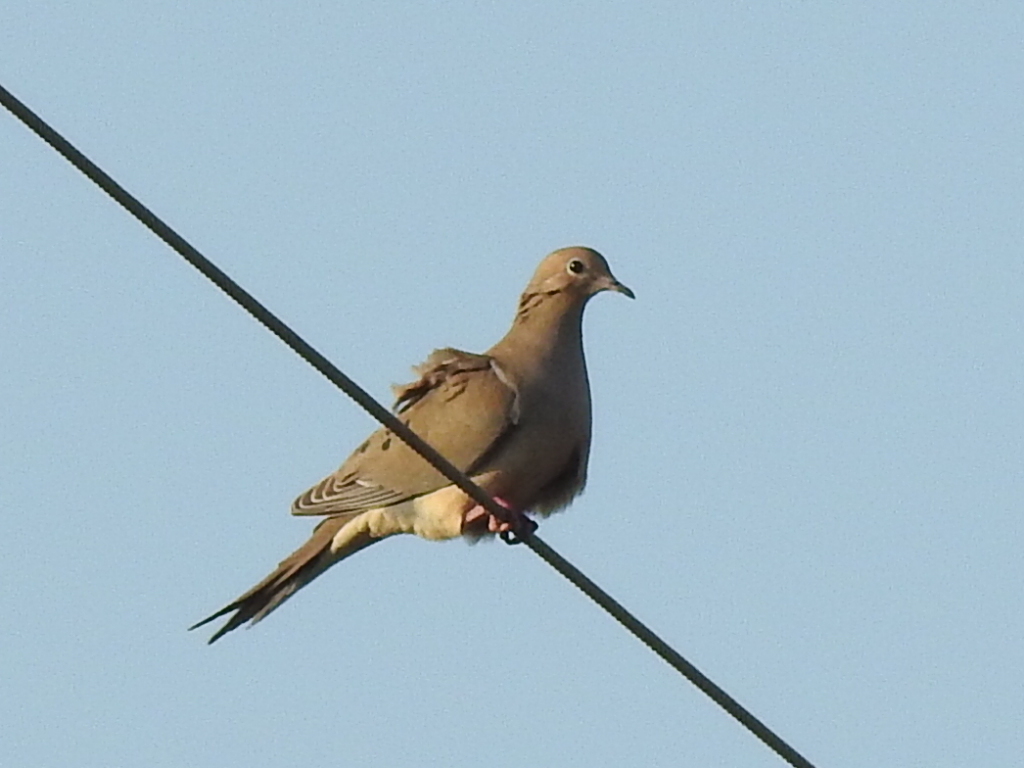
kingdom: Animalia
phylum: Chordata
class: Aves
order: Columbiformes
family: Columbidae
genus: Zenaida
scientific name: Zenaida macroura
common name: Mourning dove
